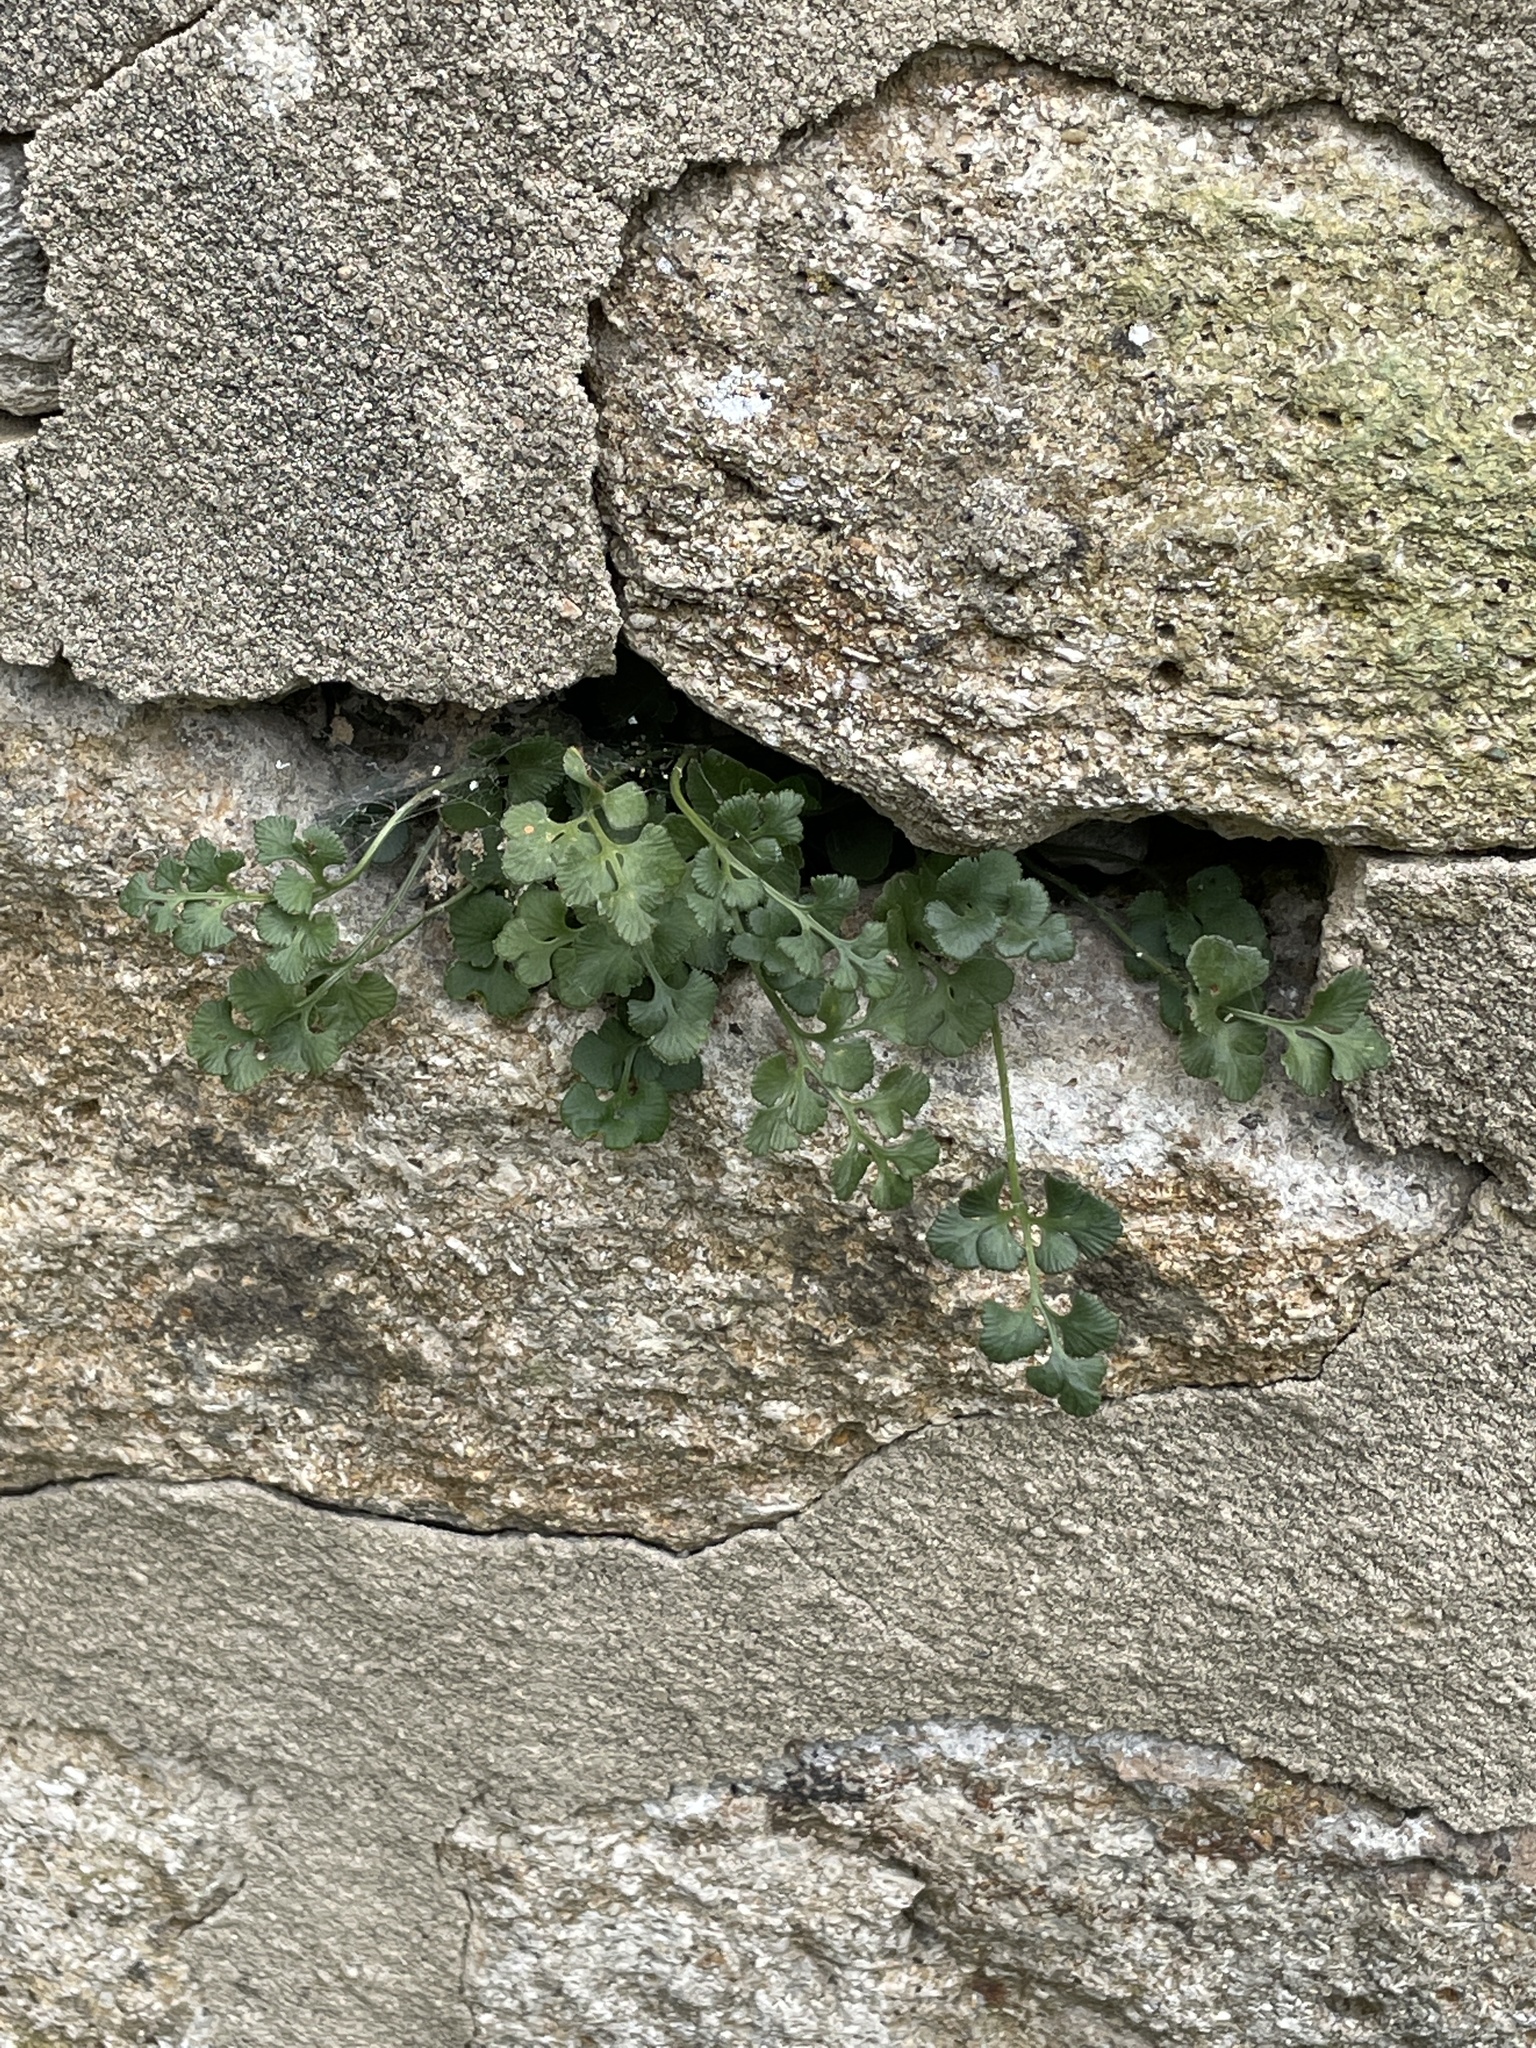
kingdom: Plantae
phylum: Tracheophyta
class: Polypodiopsida
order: Polypodiales
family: Aspleniaceae
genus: Asplenium
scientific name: Asplenium ruta-muraria
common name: Wall-rue
